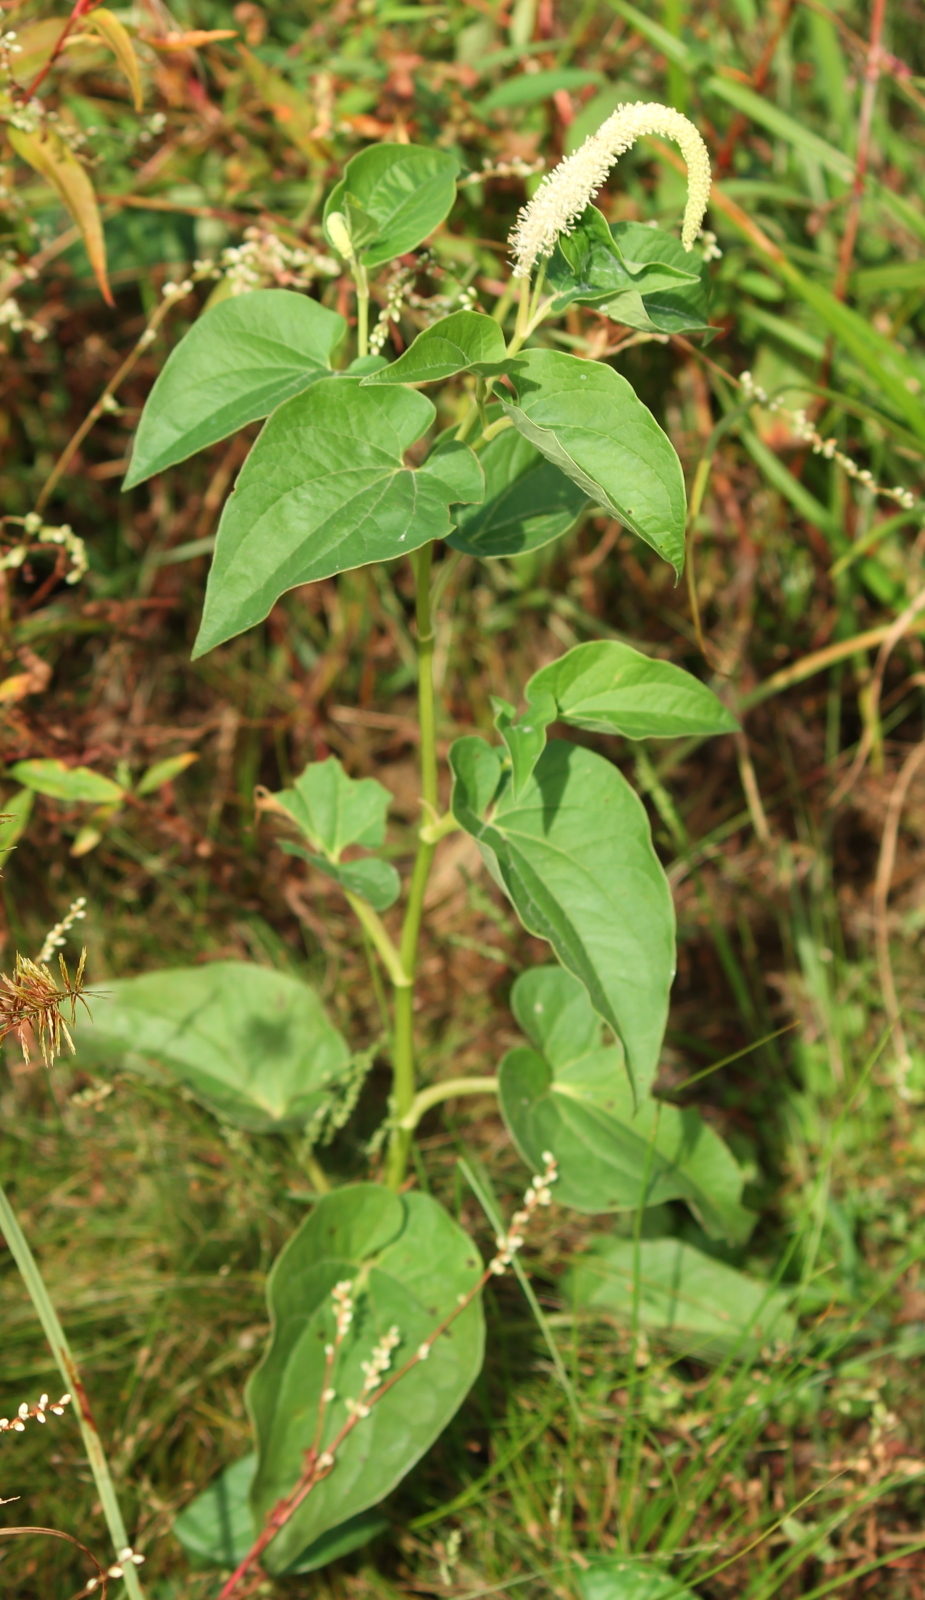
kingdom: Plantae
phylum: Tracheophyta
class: Magnoliopsida
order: Piperales
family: Saururaceae
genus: Saururus
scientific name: Saururus cernuus
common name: Lizard's-tail
